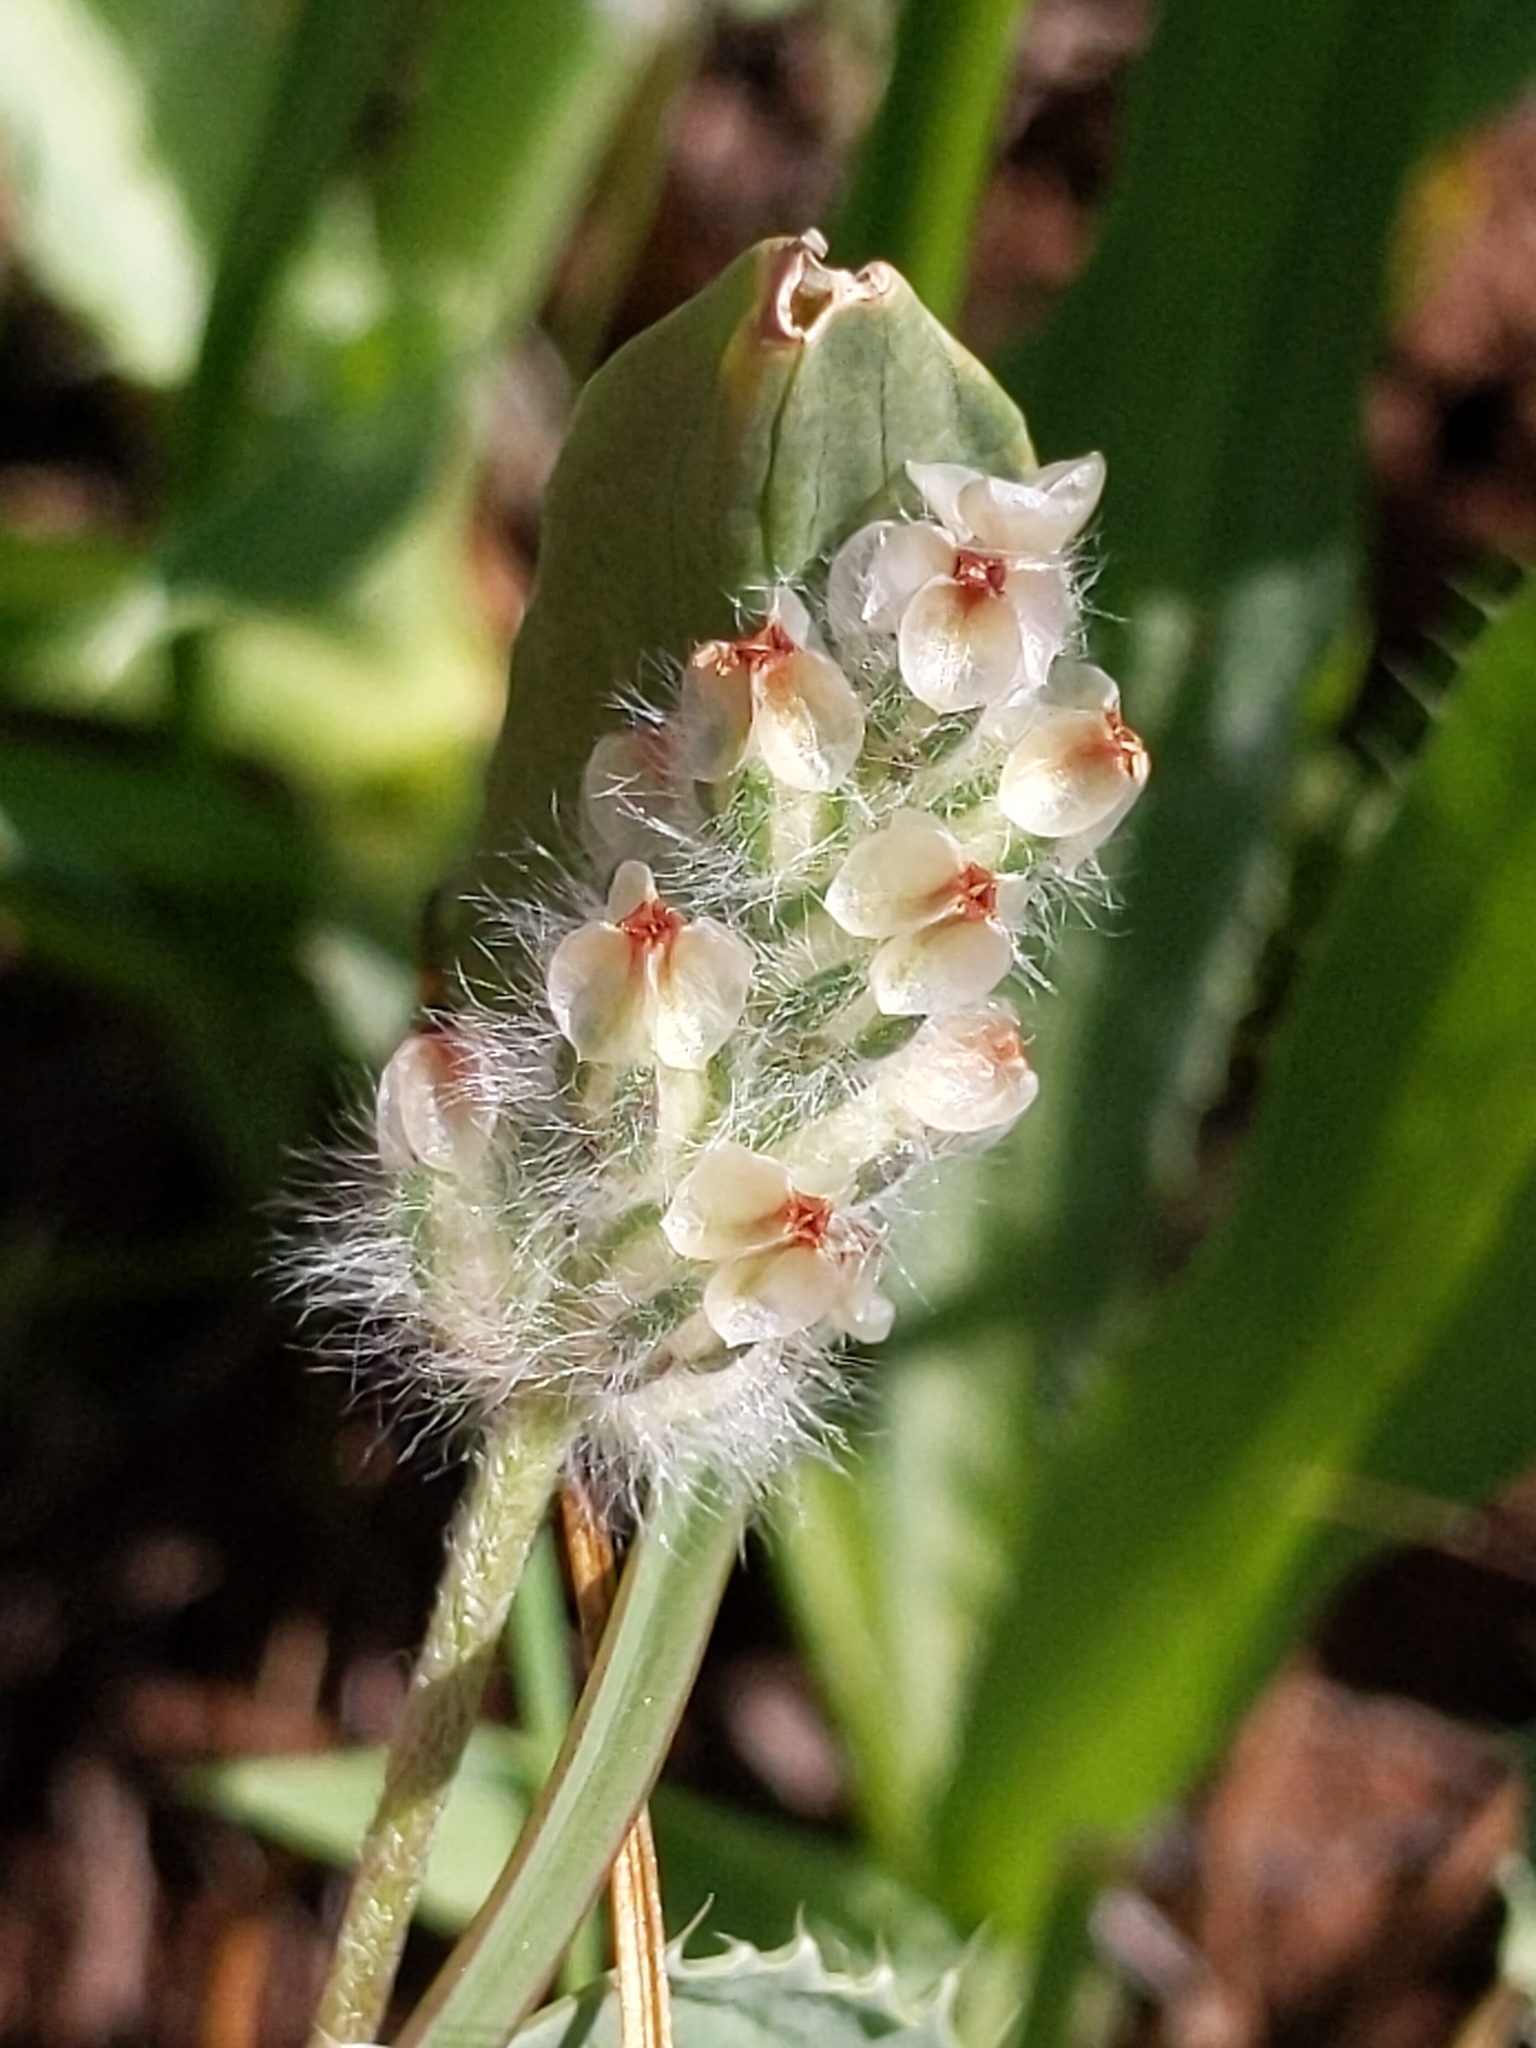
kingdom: Plantae
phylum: Tracheophyta
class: Magnoliopsida
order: Lamiales
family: Plantaginaceae
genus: Plantago
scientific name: Plantago erecta
